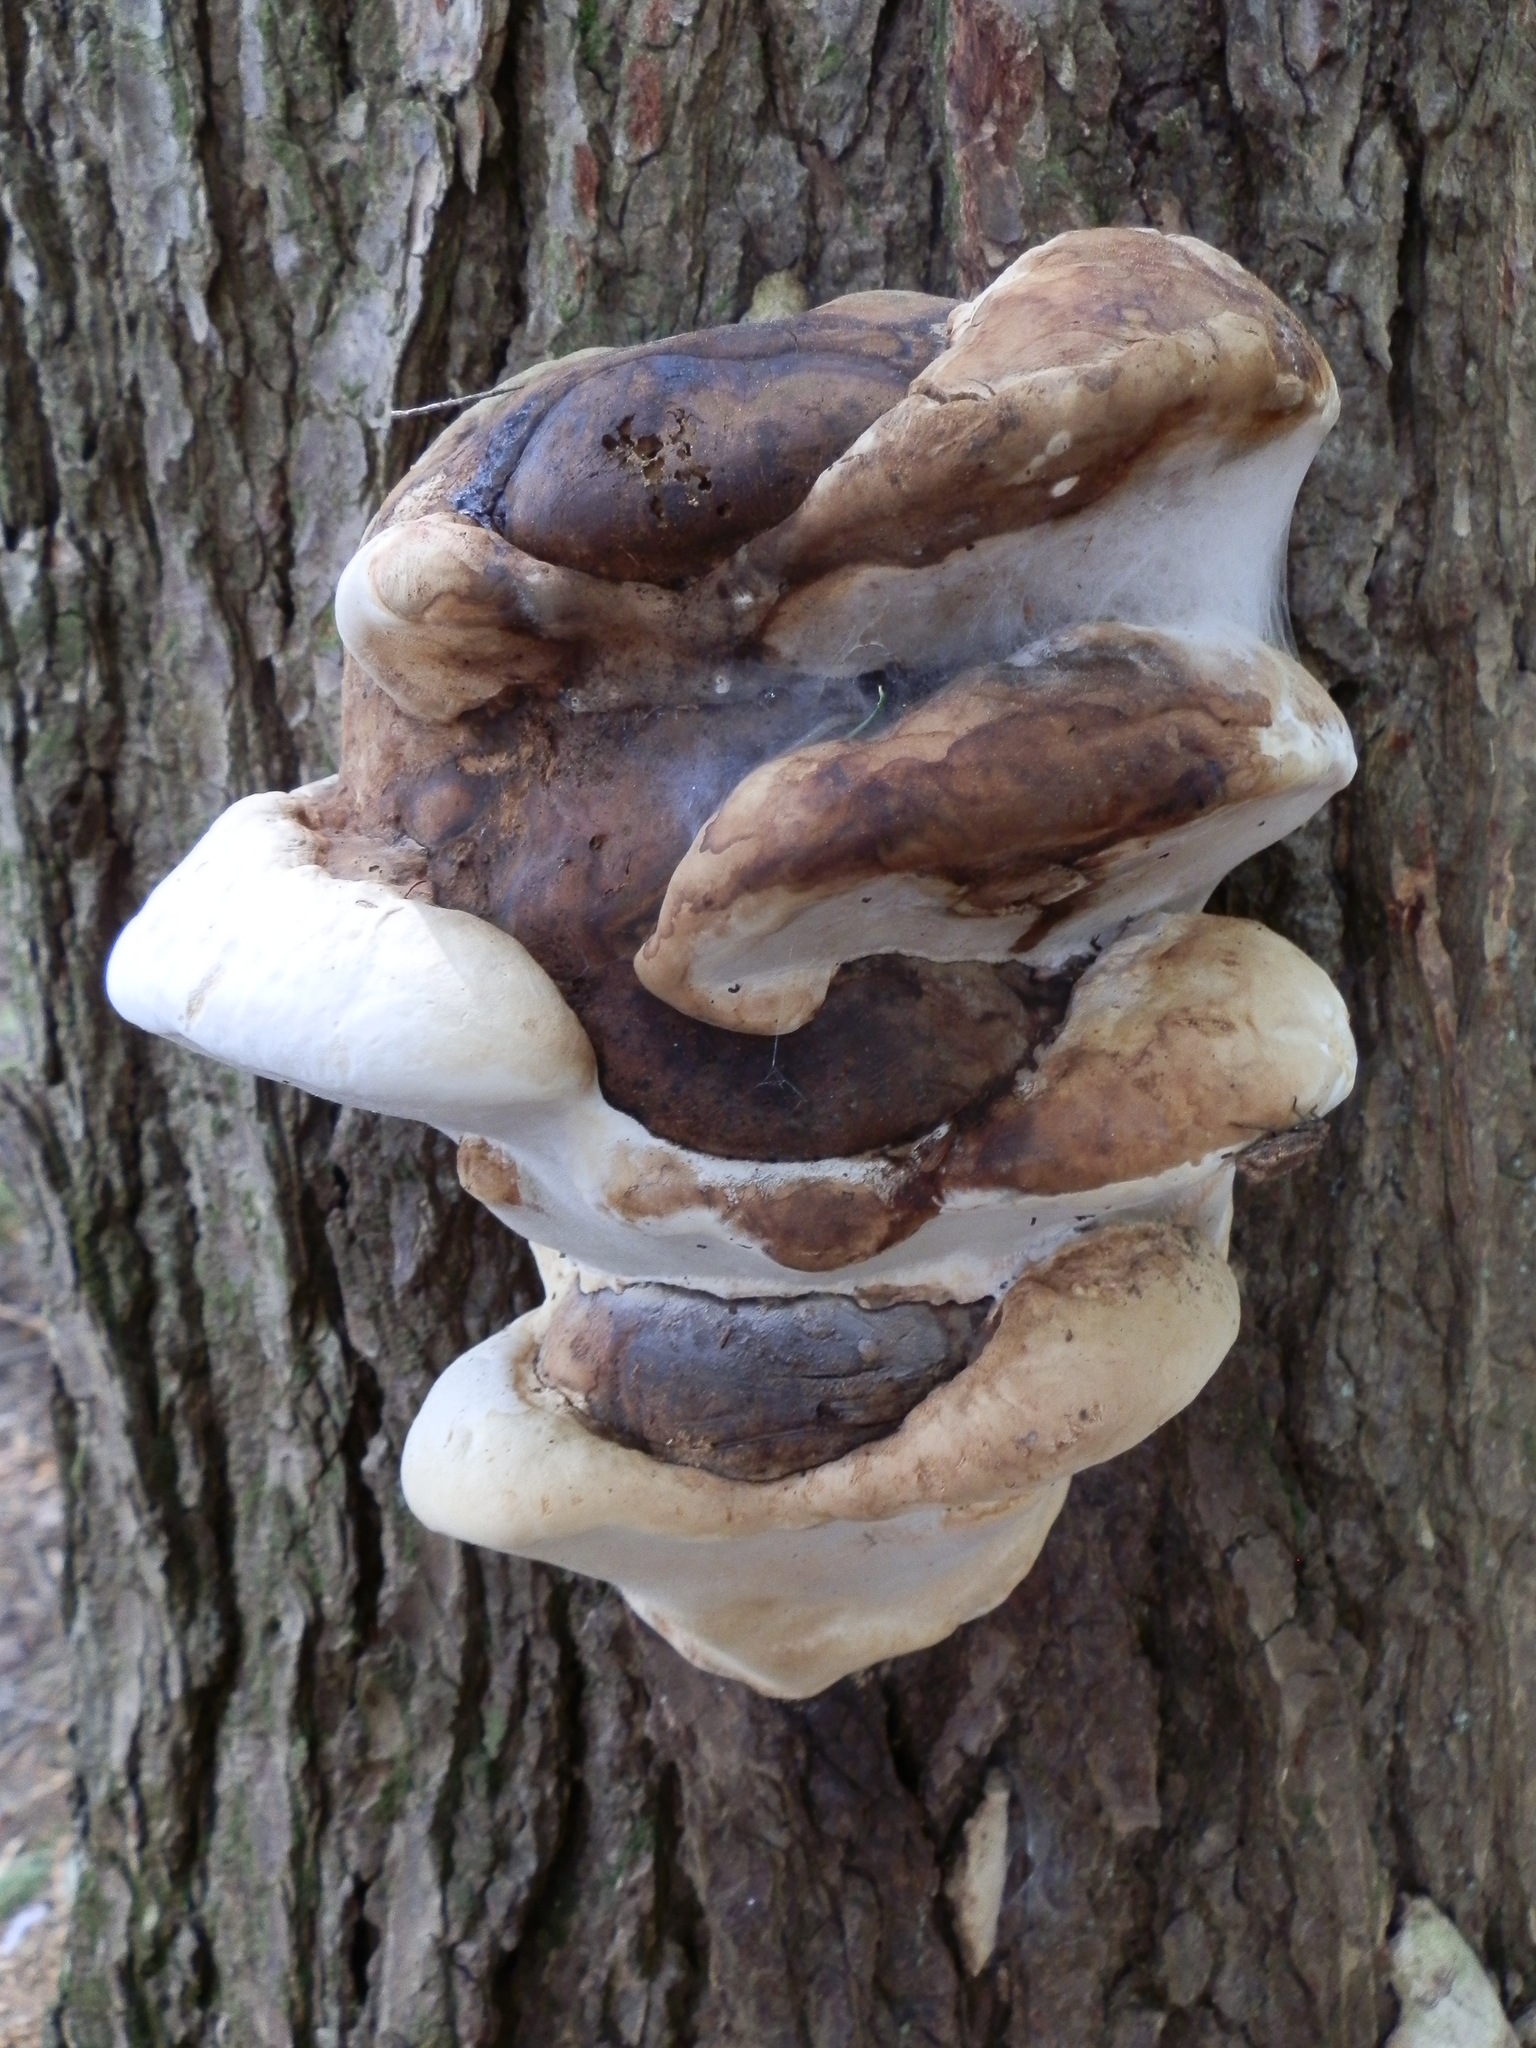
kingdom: Fungi
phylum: Basidiomycota
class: Agaricomycetes
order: Polyporales
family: Fomitopsidaceae
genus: Fomitopsis
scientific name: Fomitopsis ochracea
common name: American brown fomitopsis
